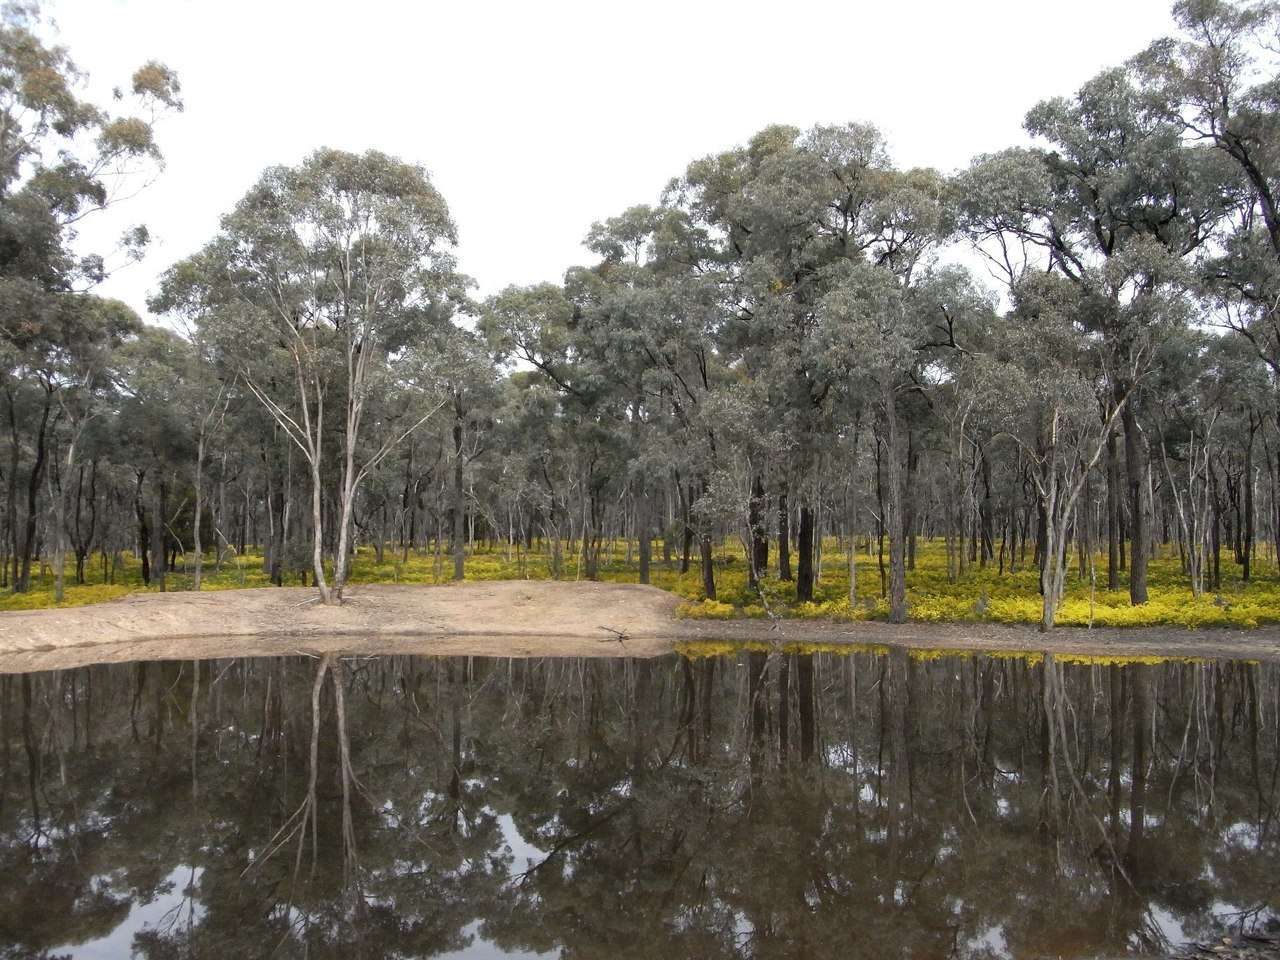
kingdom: Plantae
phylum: Tracheophyta
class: Magnoliopsida
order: Fabales
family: Fabaceae
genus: Acacia
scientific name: Acacia acinacea
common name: Gold-dust acacia
